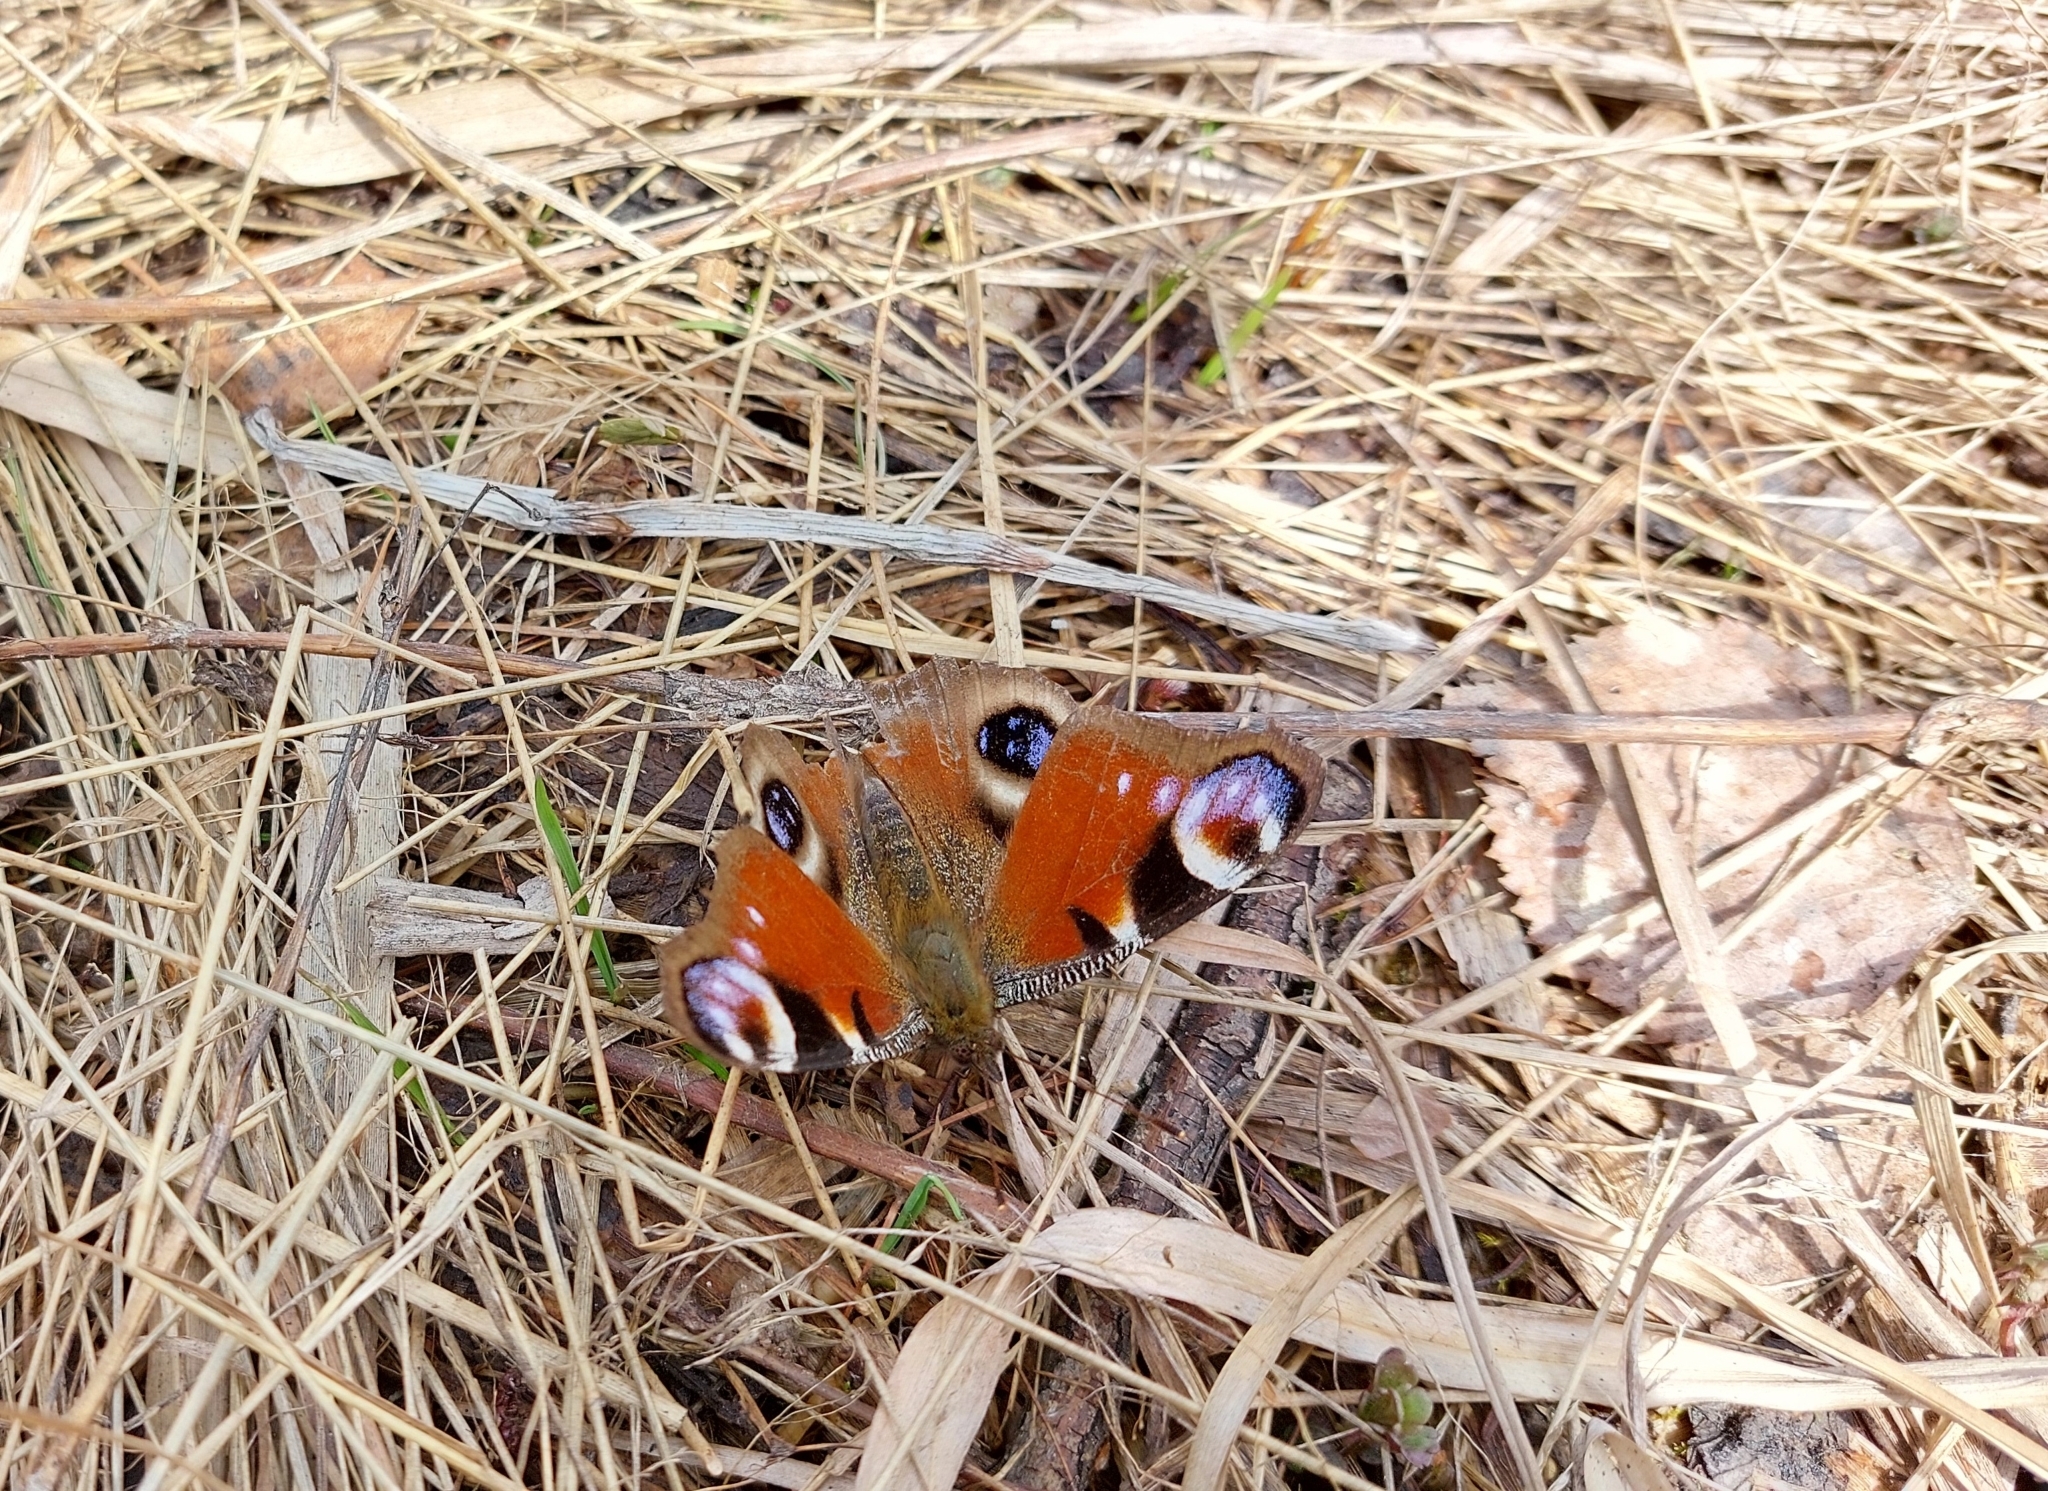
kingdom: Animalia
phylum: Arthropoda
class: Insecta
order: Lepidoptera
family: Nymphalidae
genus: Aglais
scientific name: Aglais io
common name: Peacock
